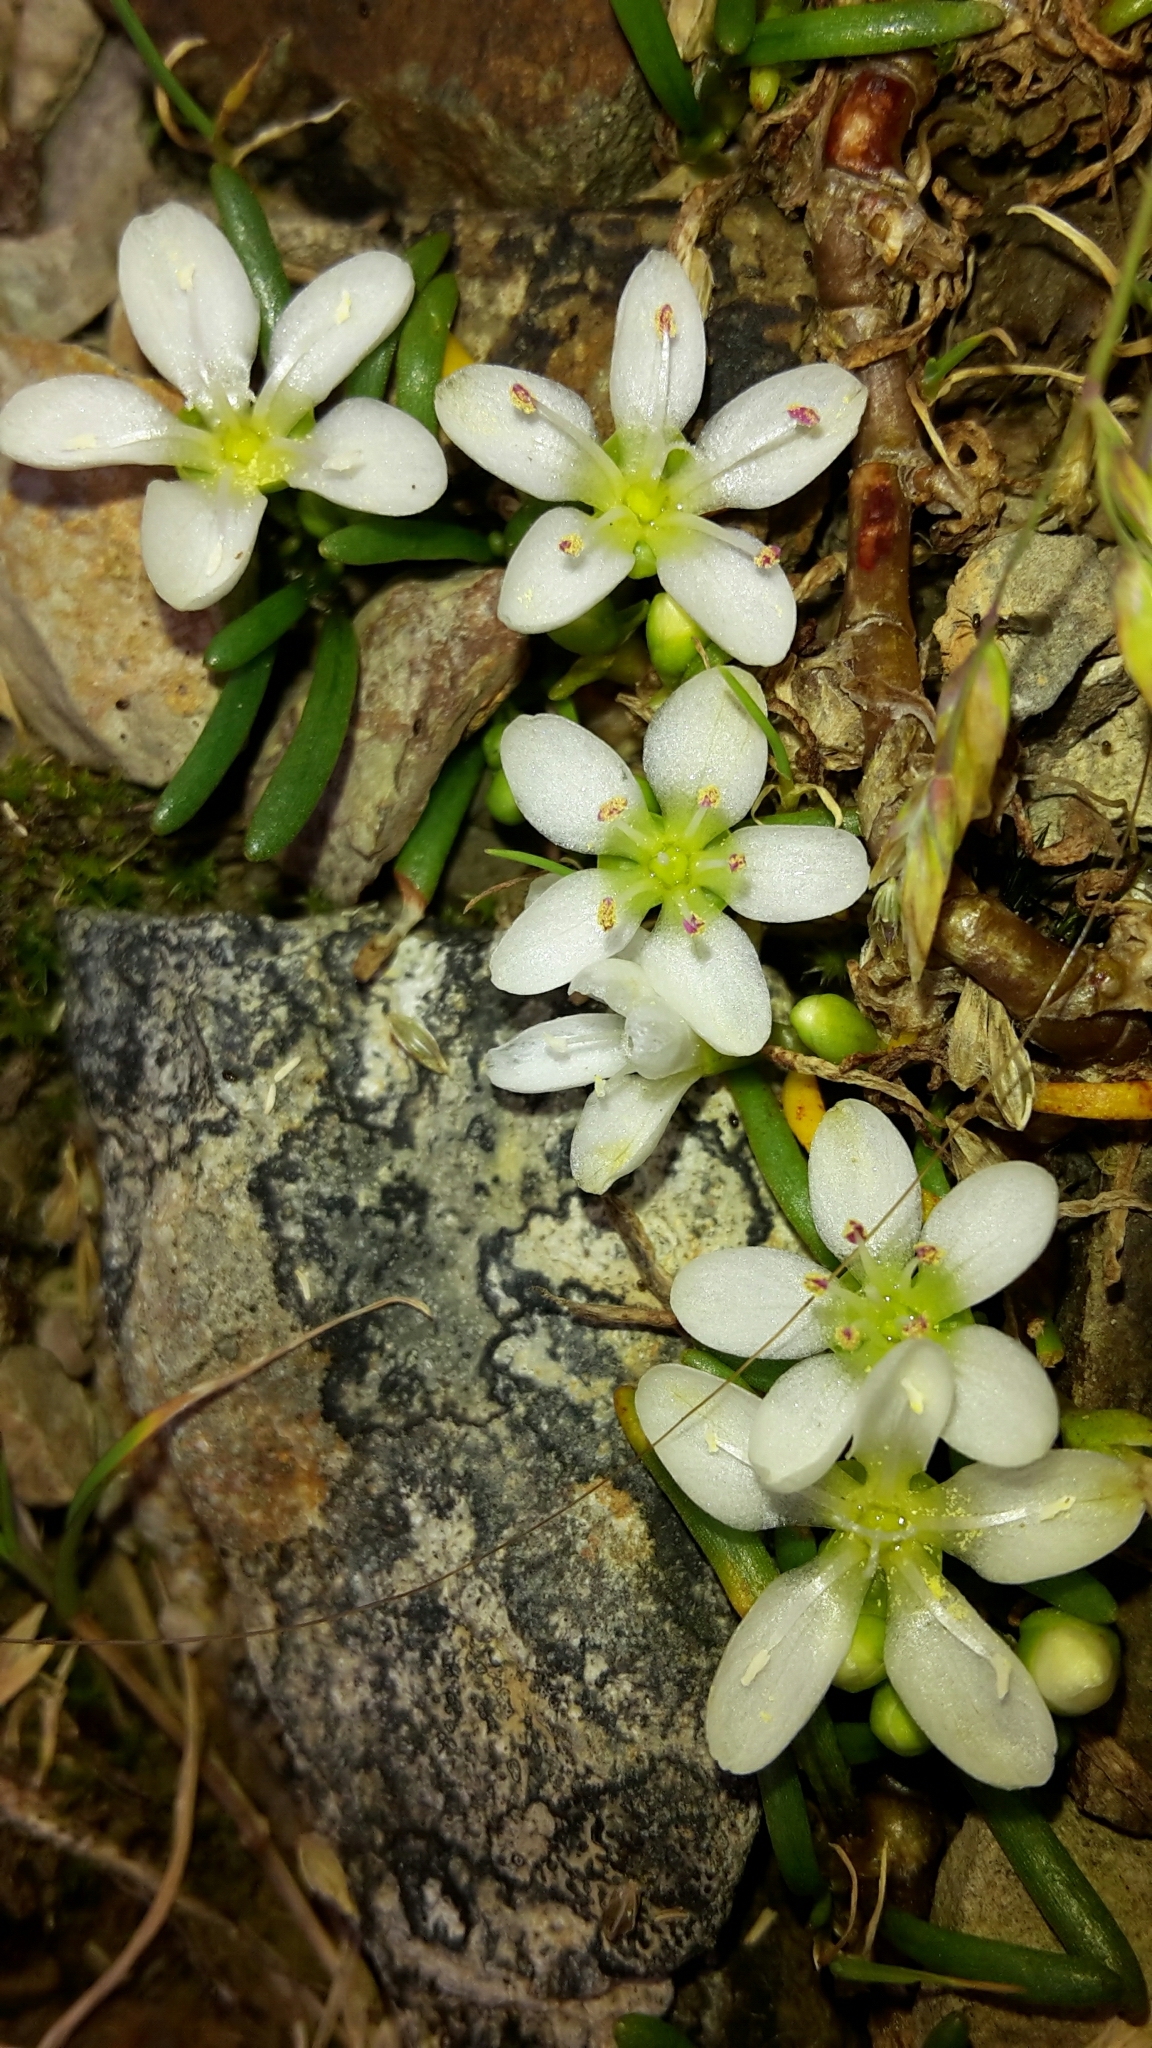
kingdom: Plantae
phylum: Tracheophyta
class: Magnoliopsida
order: Caryophyllales
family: Montiaceae
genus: Montia
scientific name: Montia calycina
